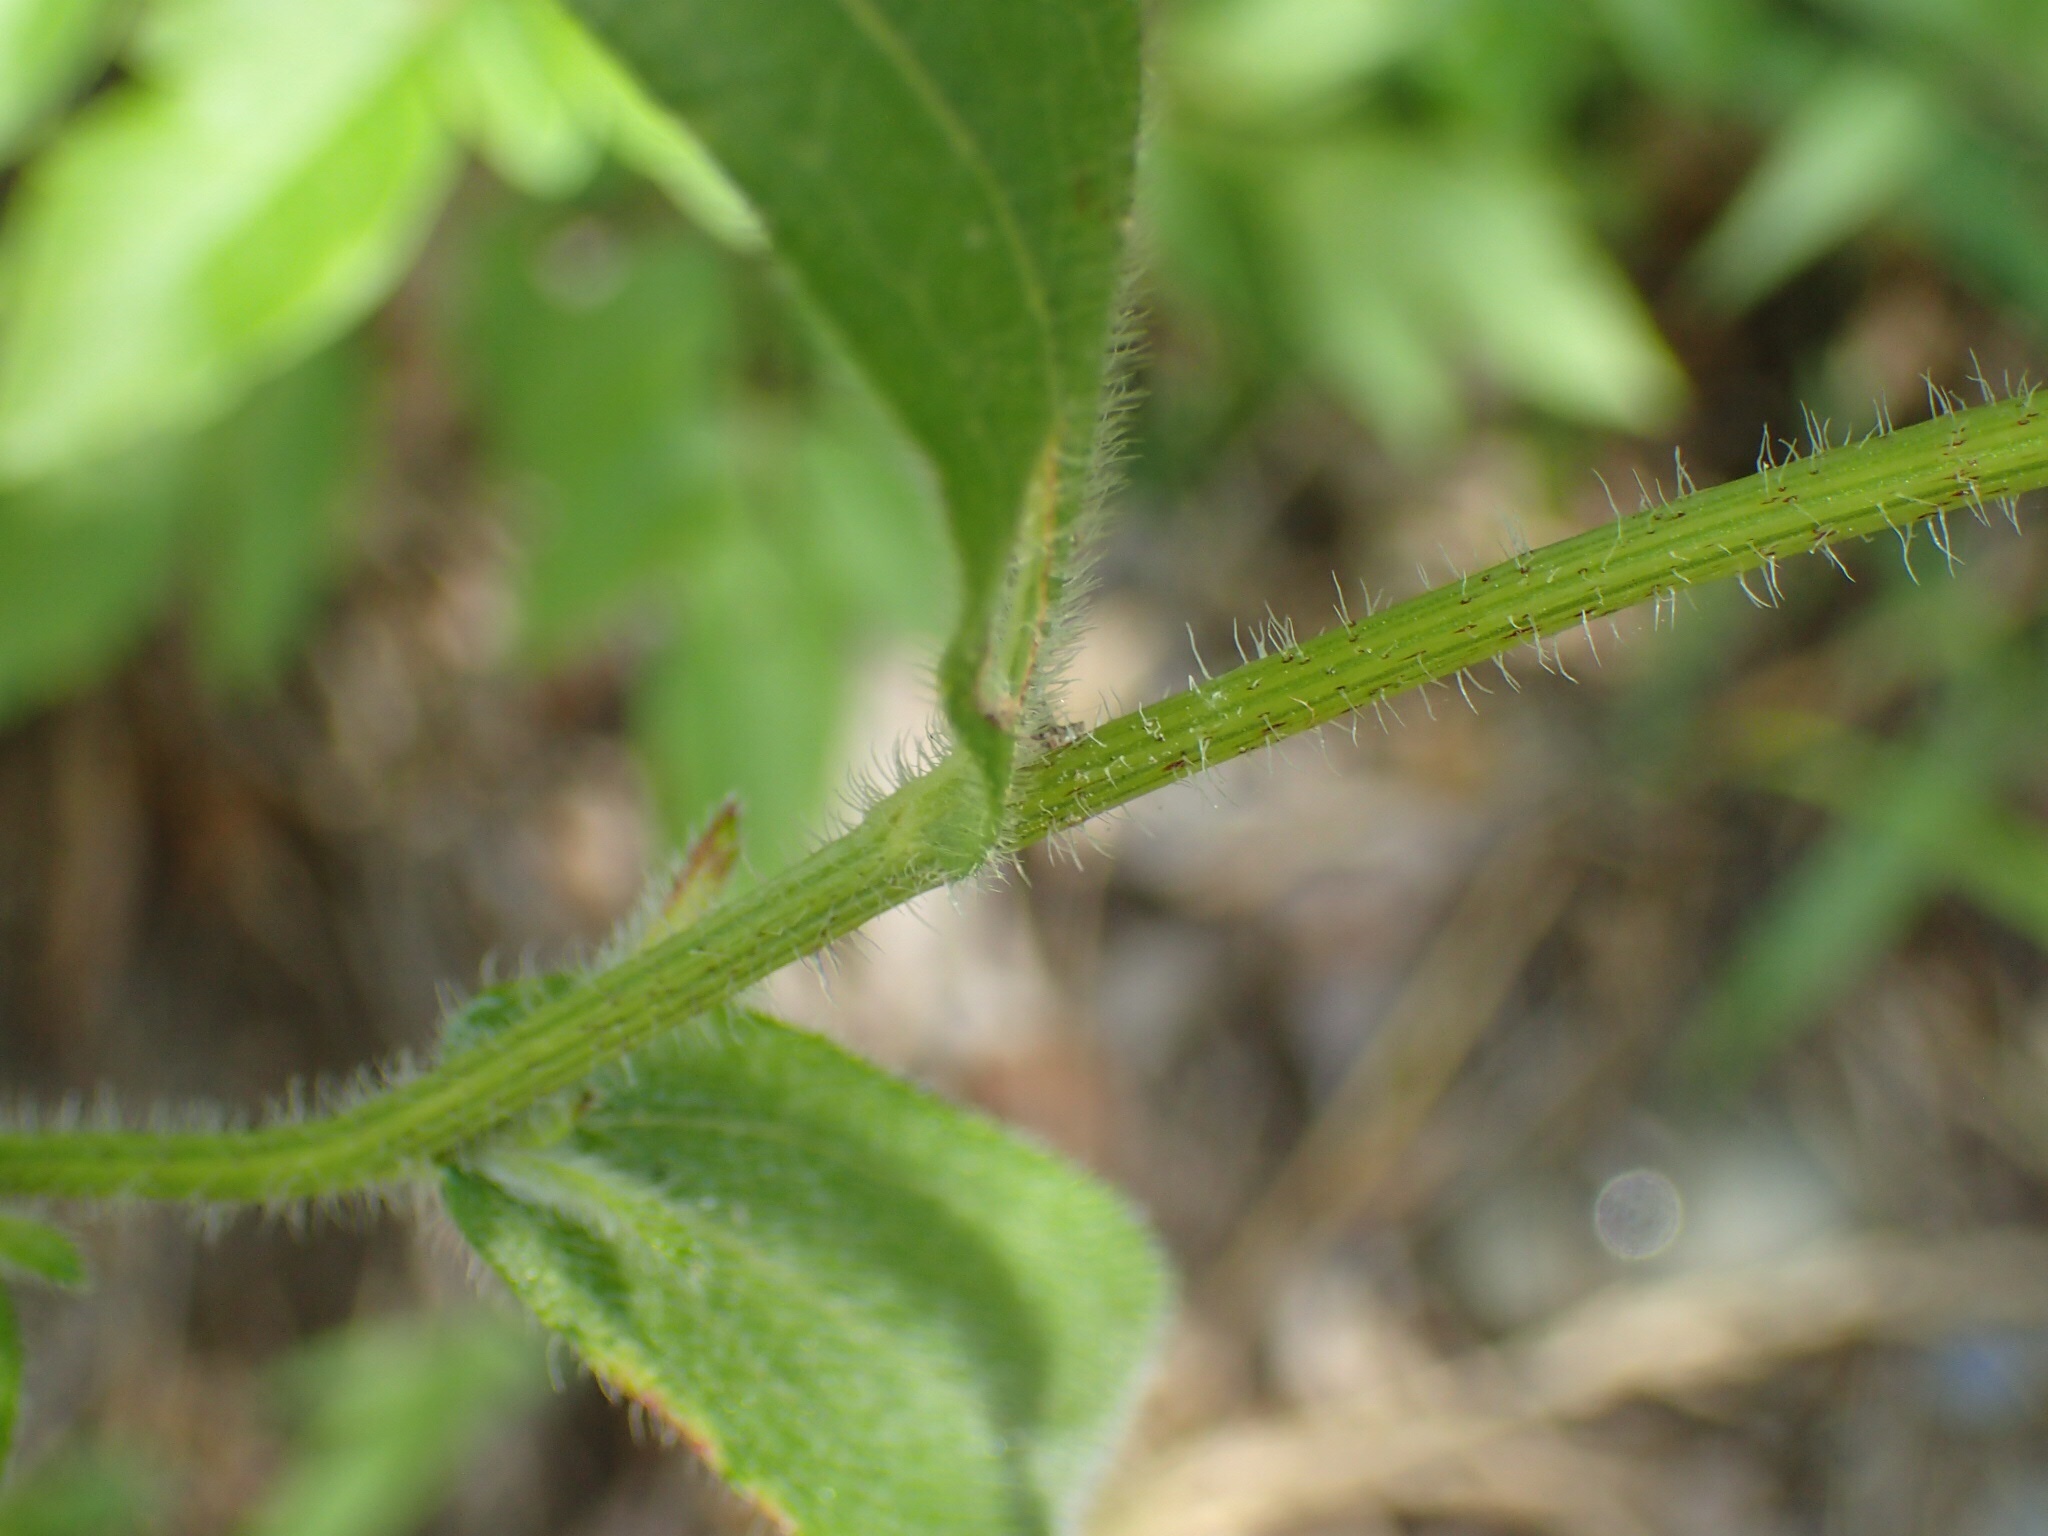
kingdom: Plantae
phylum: Tracheophyta
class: Magnoliopsida
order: Asterales
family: Asteraceae
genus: Rudbeckia
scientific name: Rudbeckia hirta
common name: Black-eyed-susan
